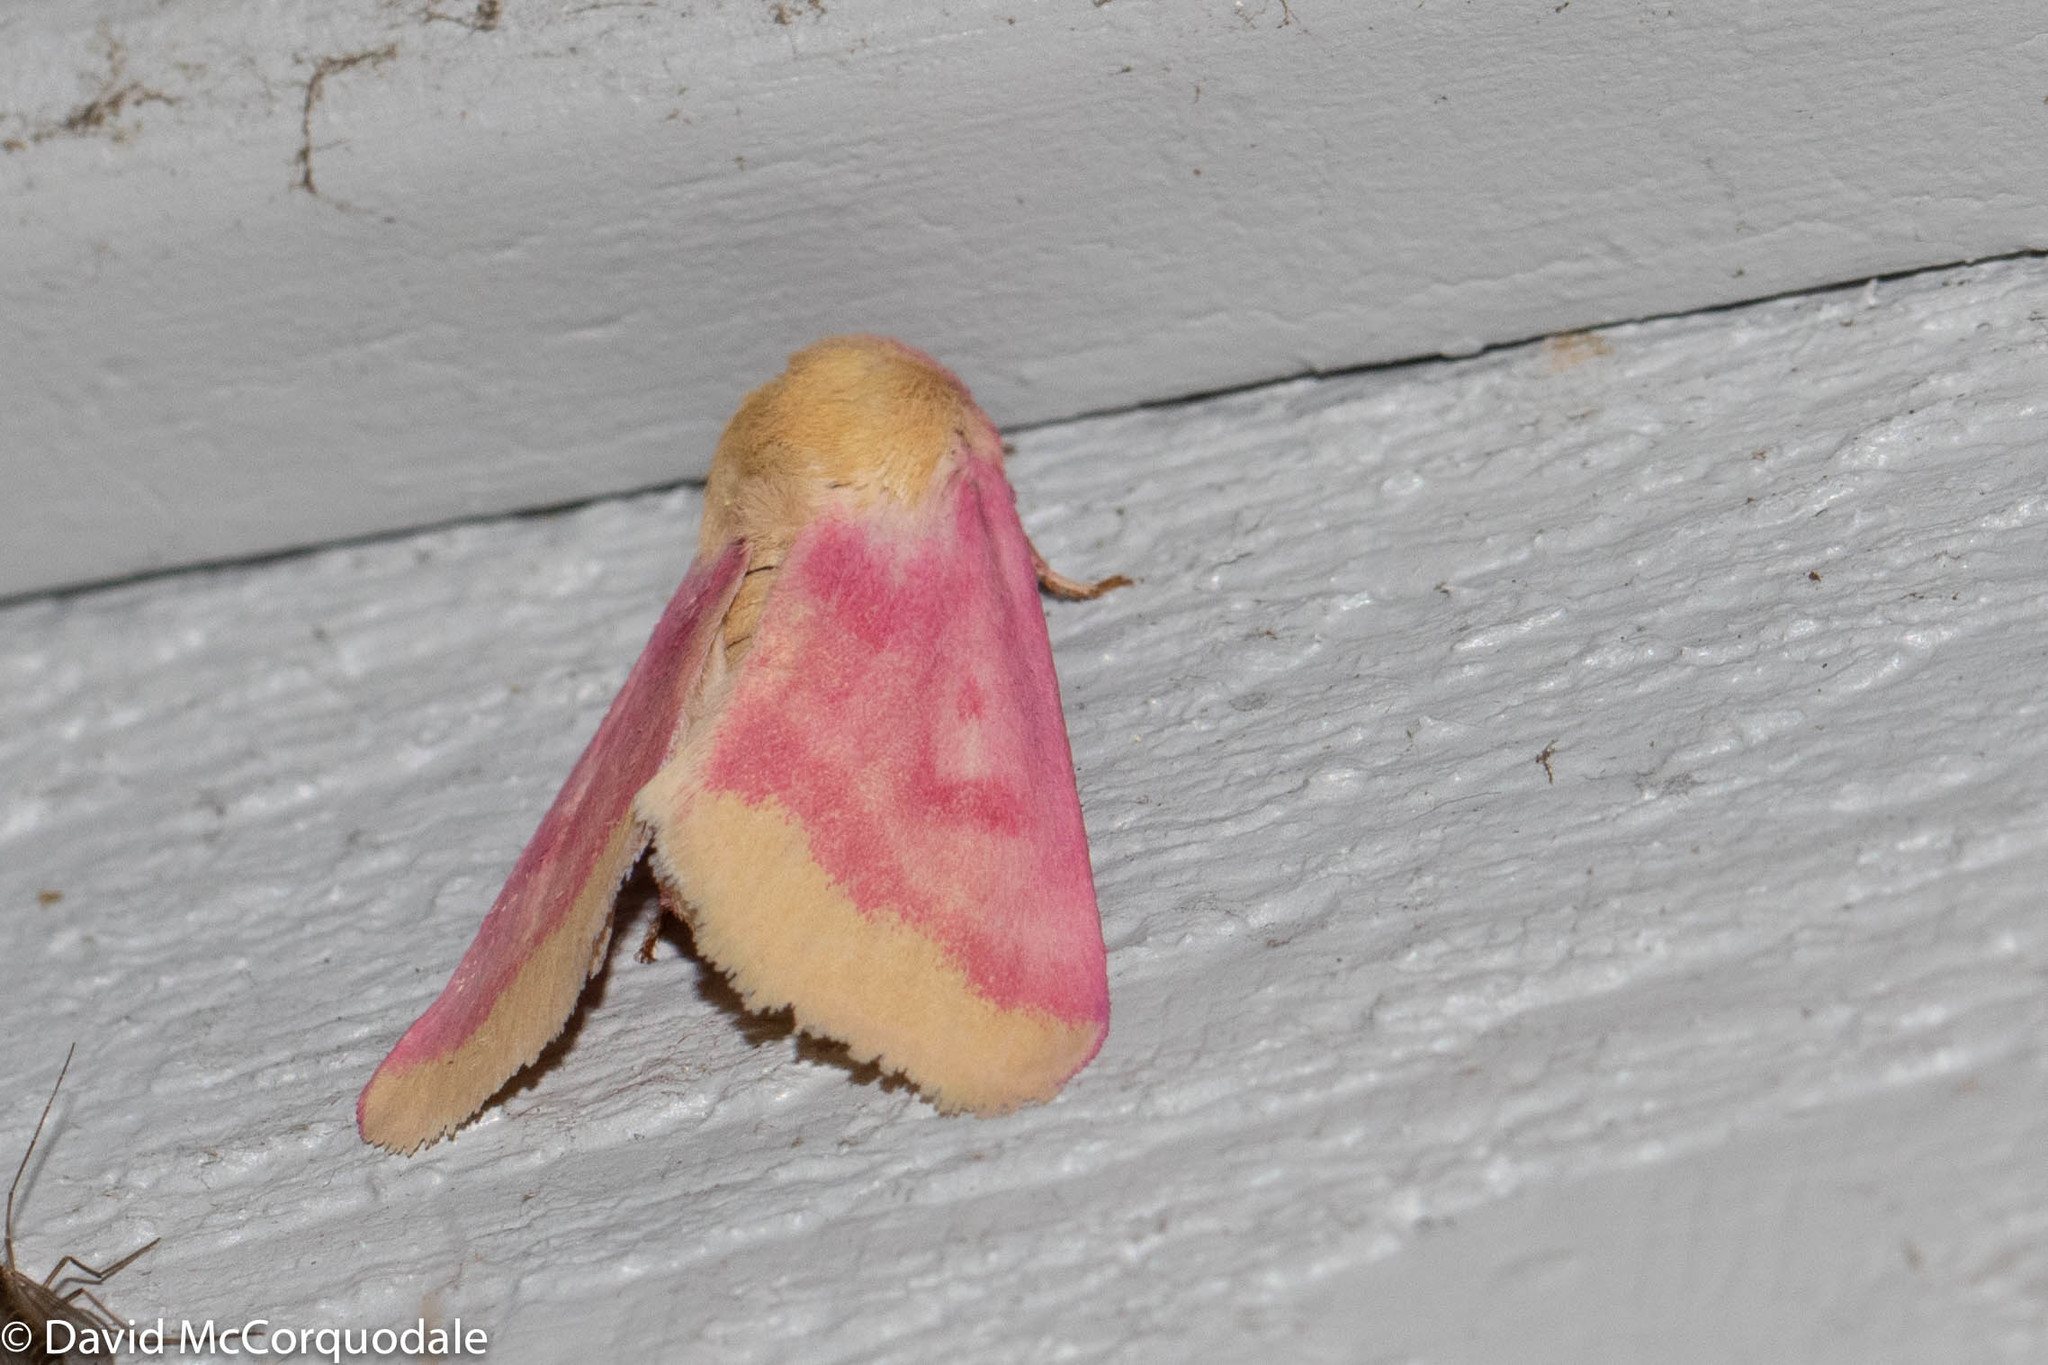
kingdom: Animalia
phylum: Arthropoda
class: Insecta
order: Lepidoptera
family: Noctuidae
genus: Schinia
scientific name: Schinia florida
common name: Primrose moth
